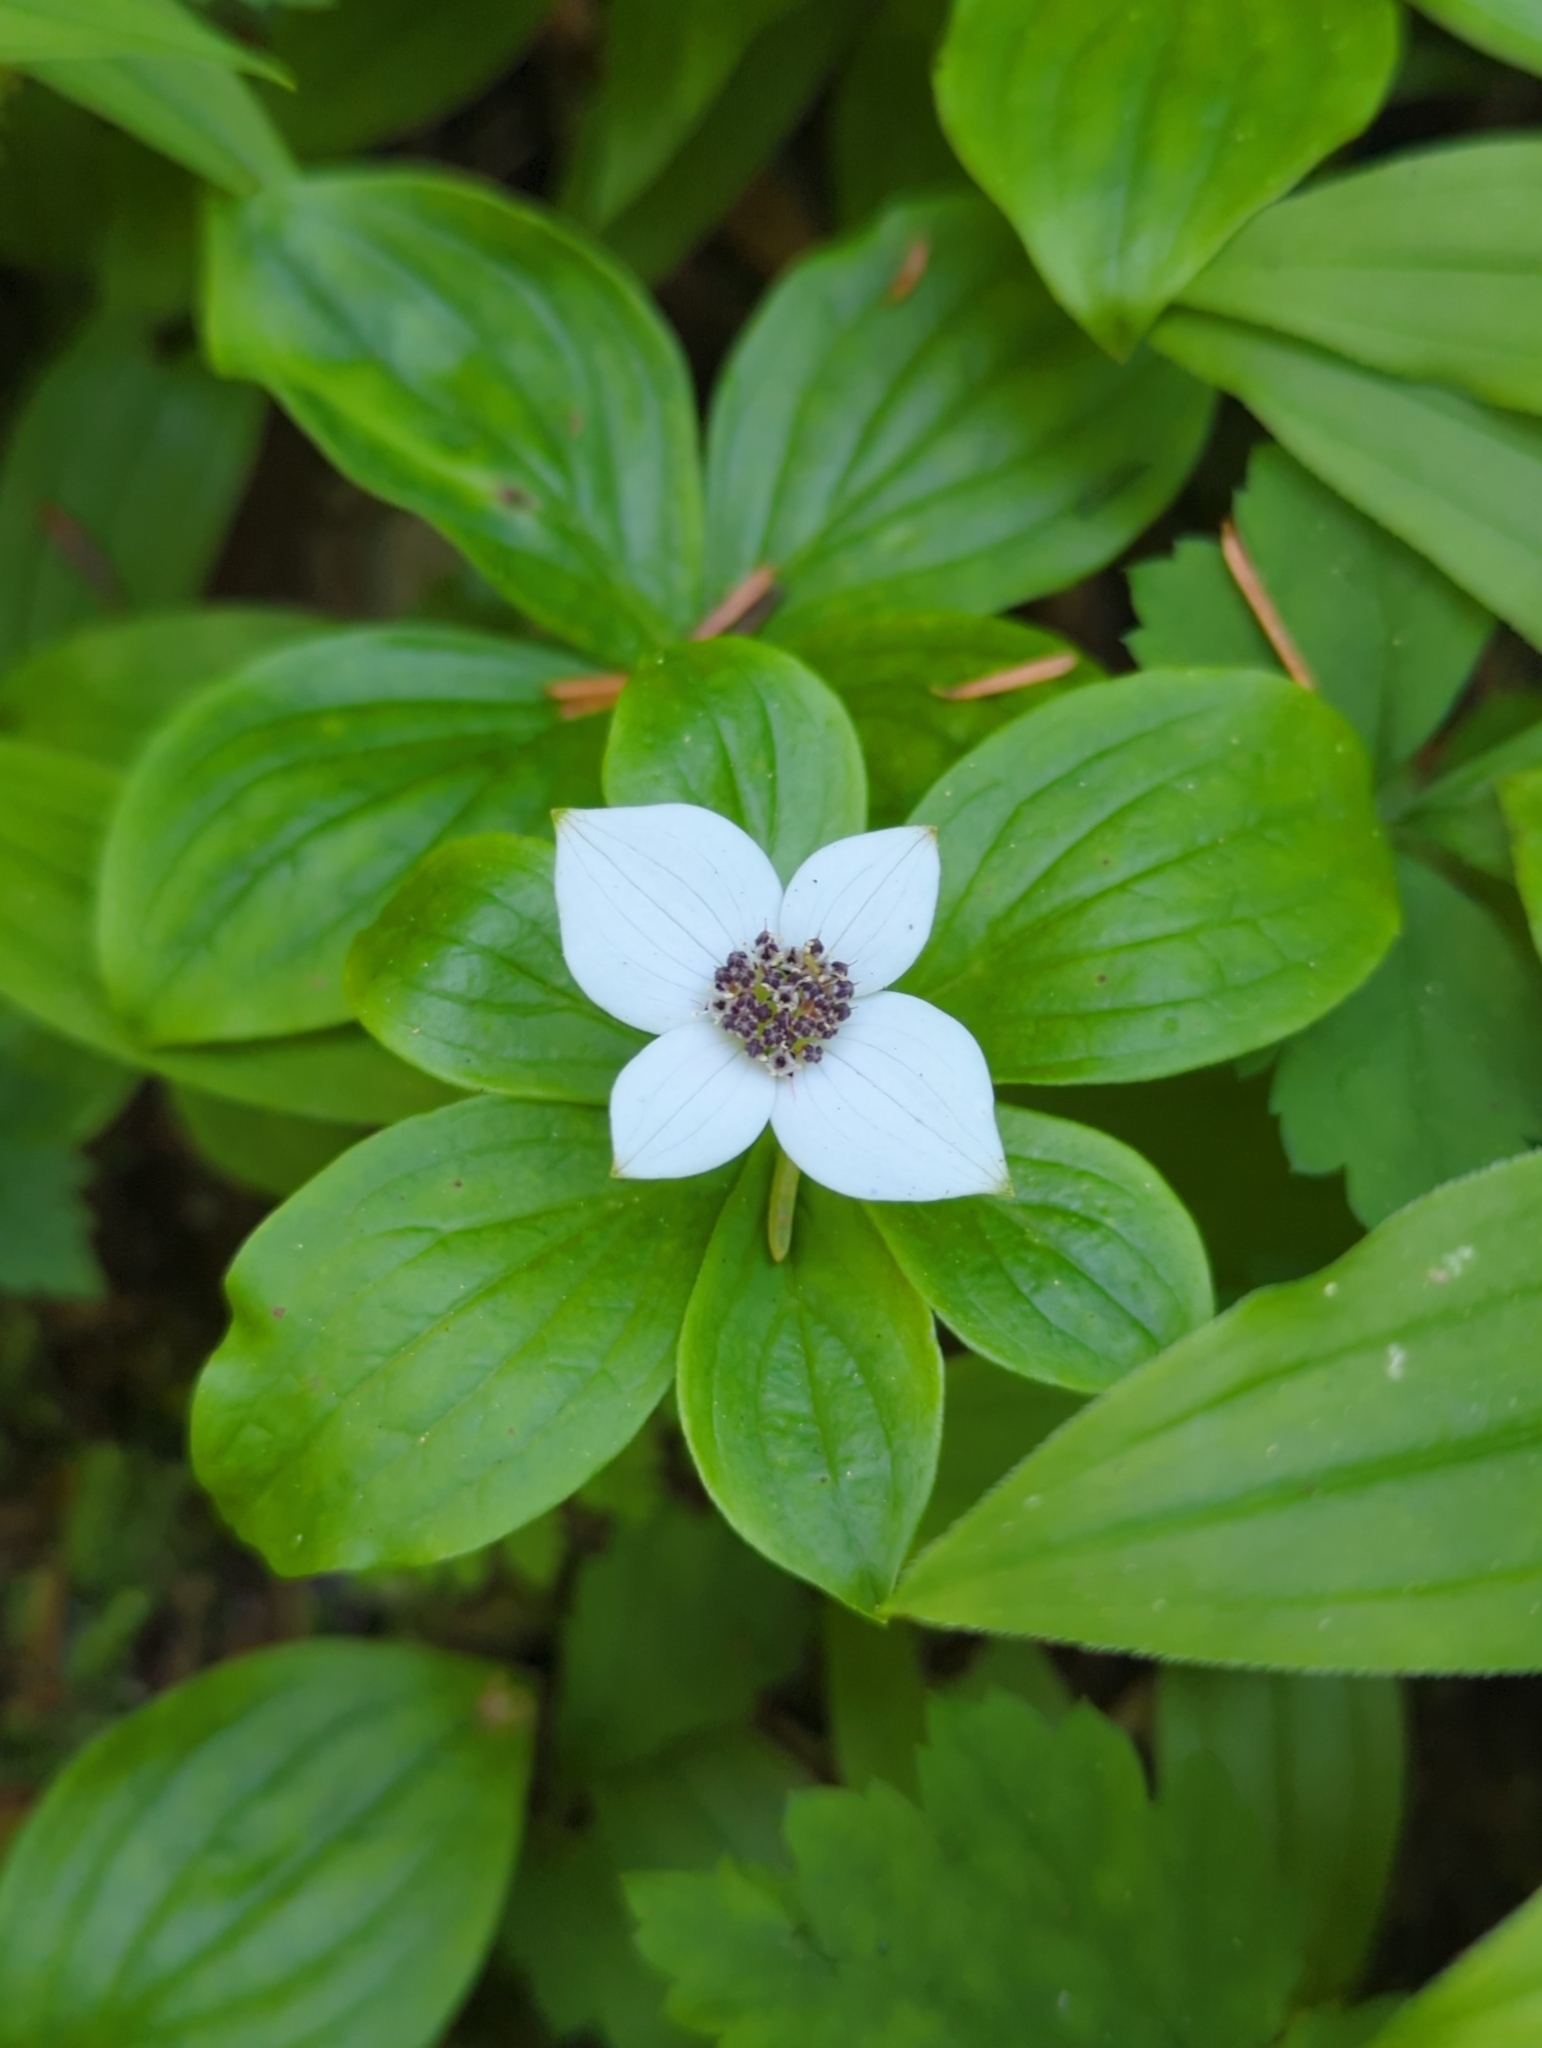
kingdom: Plantae
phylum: Tracheophyta
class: Magnoliopsida
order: Cornales
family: Cornaceae
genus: Cornus
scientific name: Cornus unalaschkensis
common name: Alaska bunchberry
